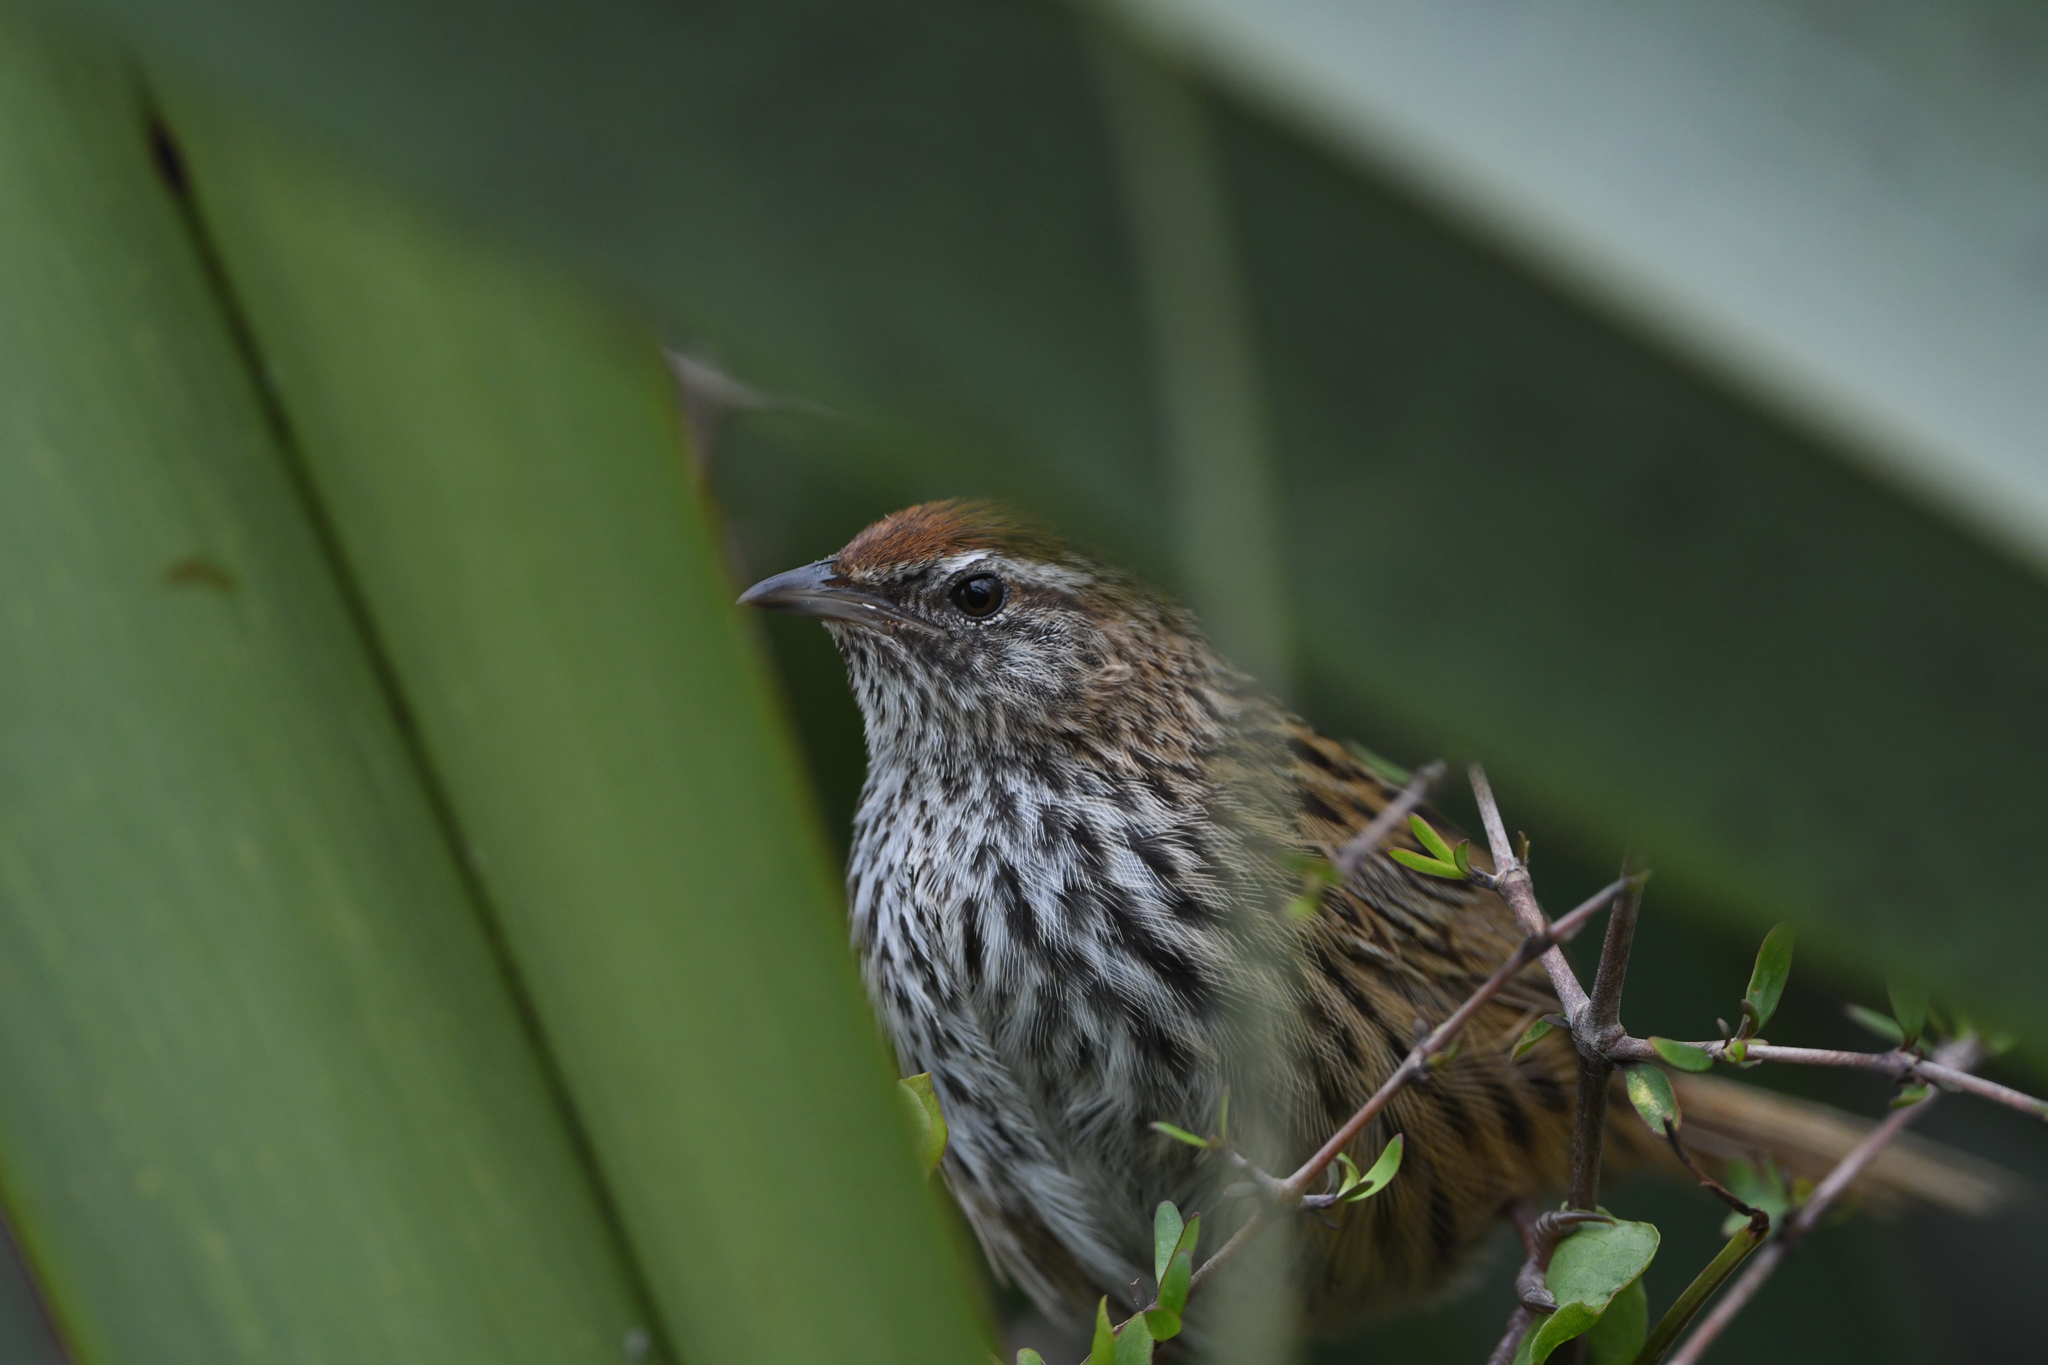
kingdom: Animalia
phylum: Chordata
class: Aves
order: Passeriformes
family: Locustellidae
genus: Poodytes
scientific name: Poodytes punctatus
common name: New zealand fernbird
